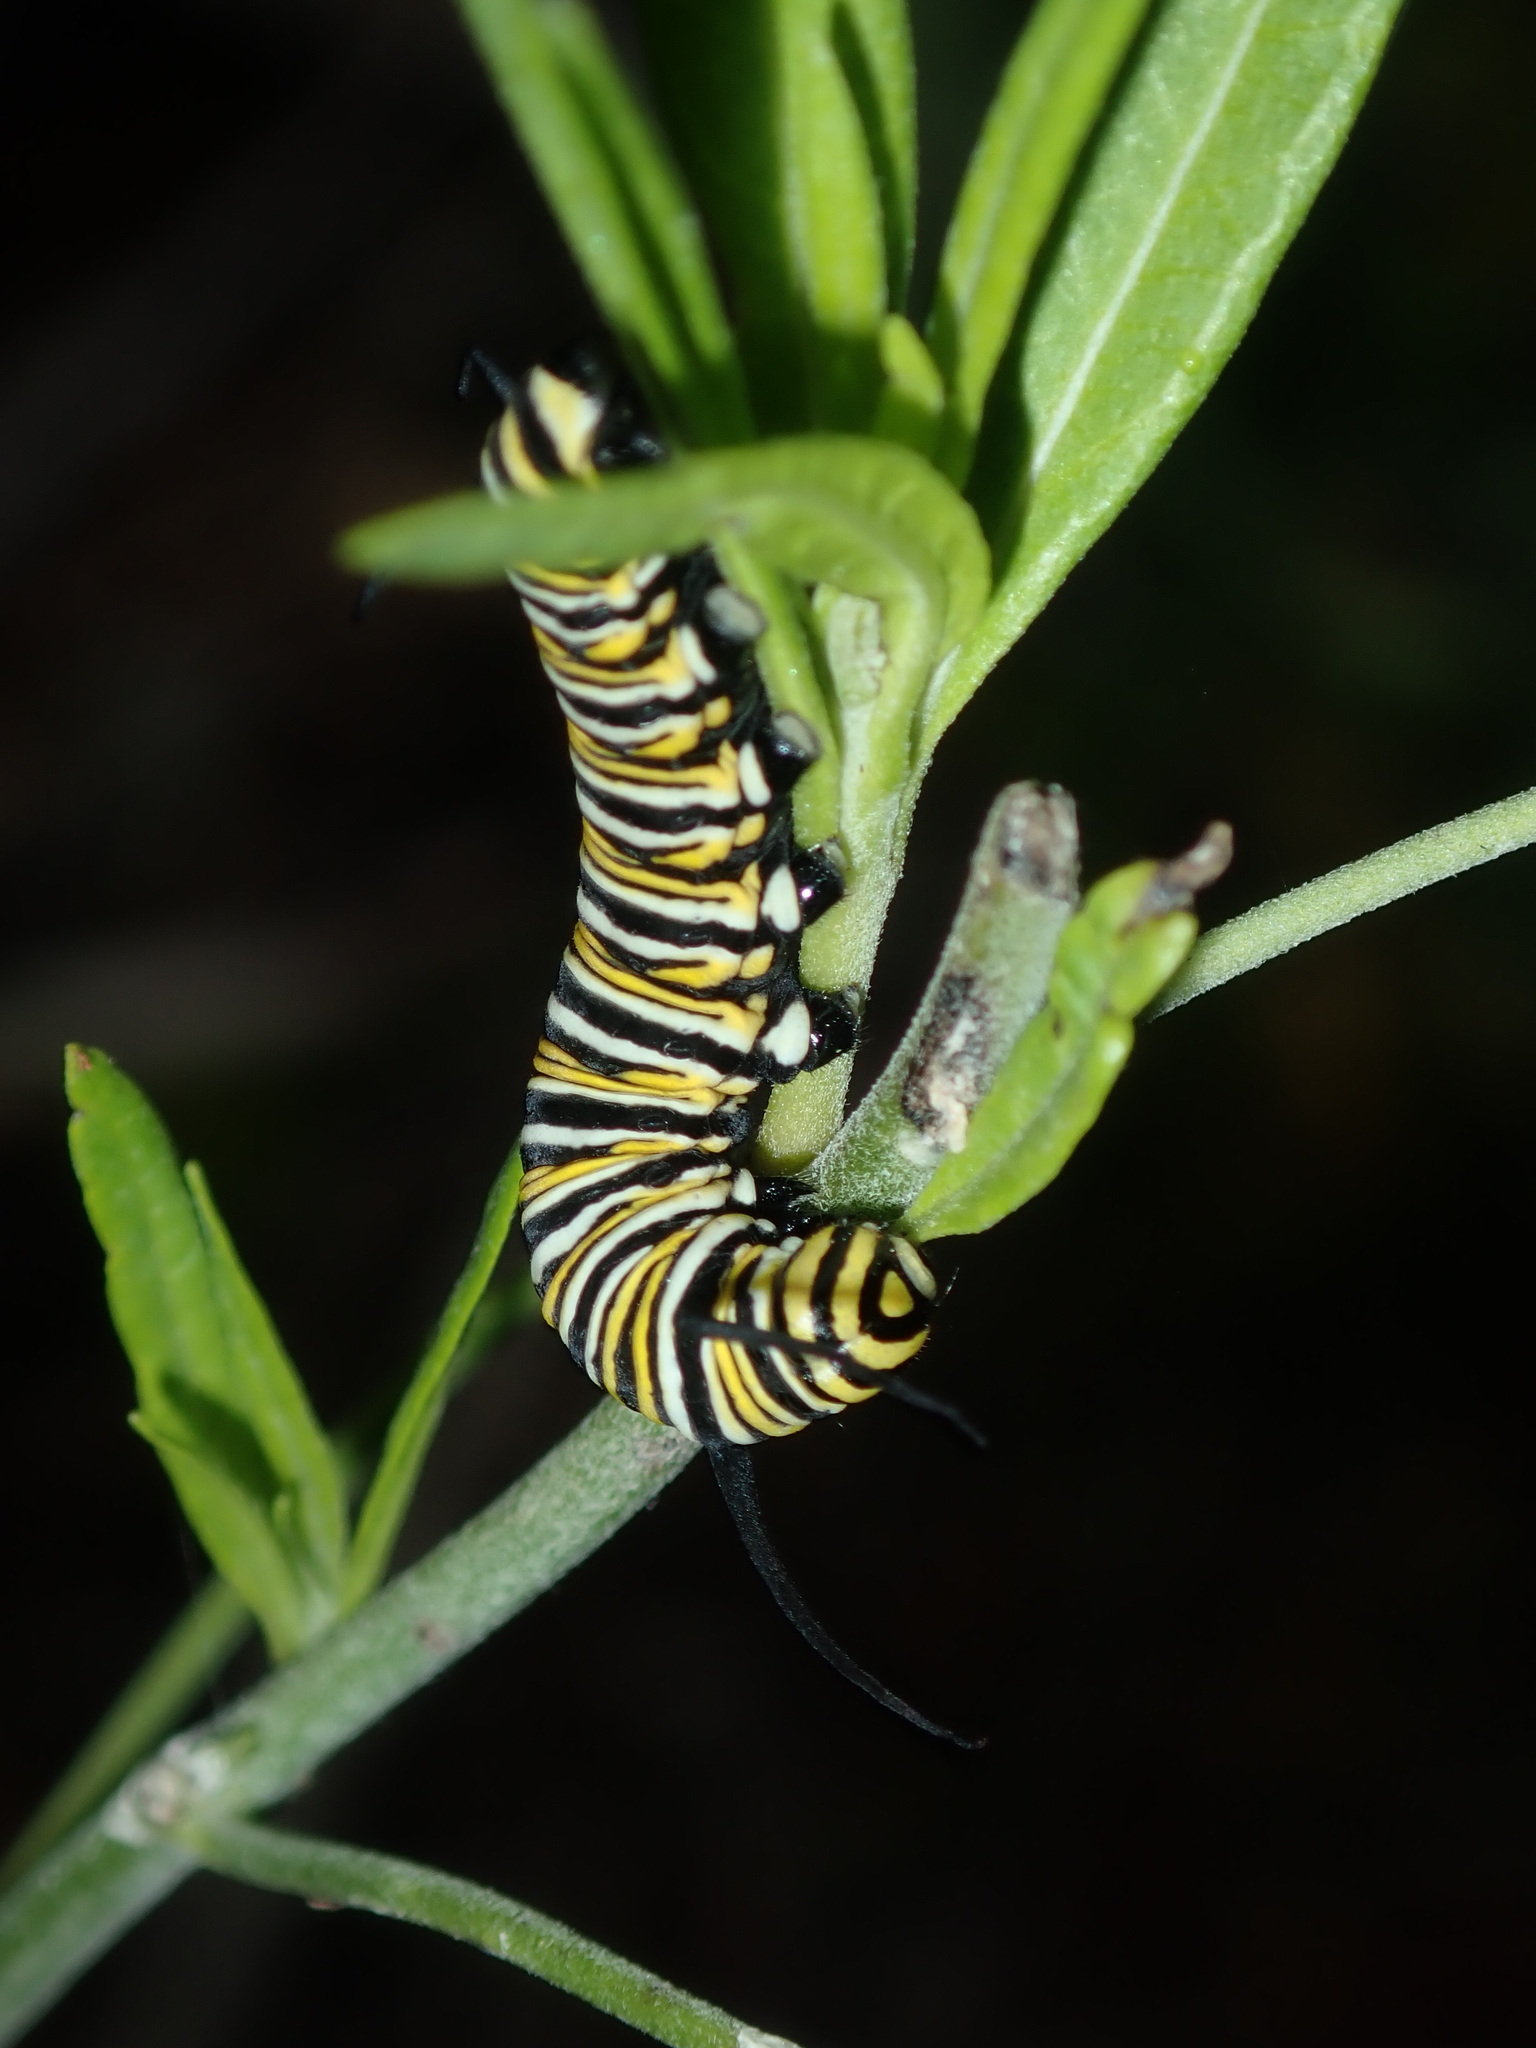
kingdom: Animalia
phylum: Arthropoda
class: Insecta
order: Lepidoptera
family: Nymphalidae
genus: Danaus
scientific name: Danaus plexippus
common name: Monarch
